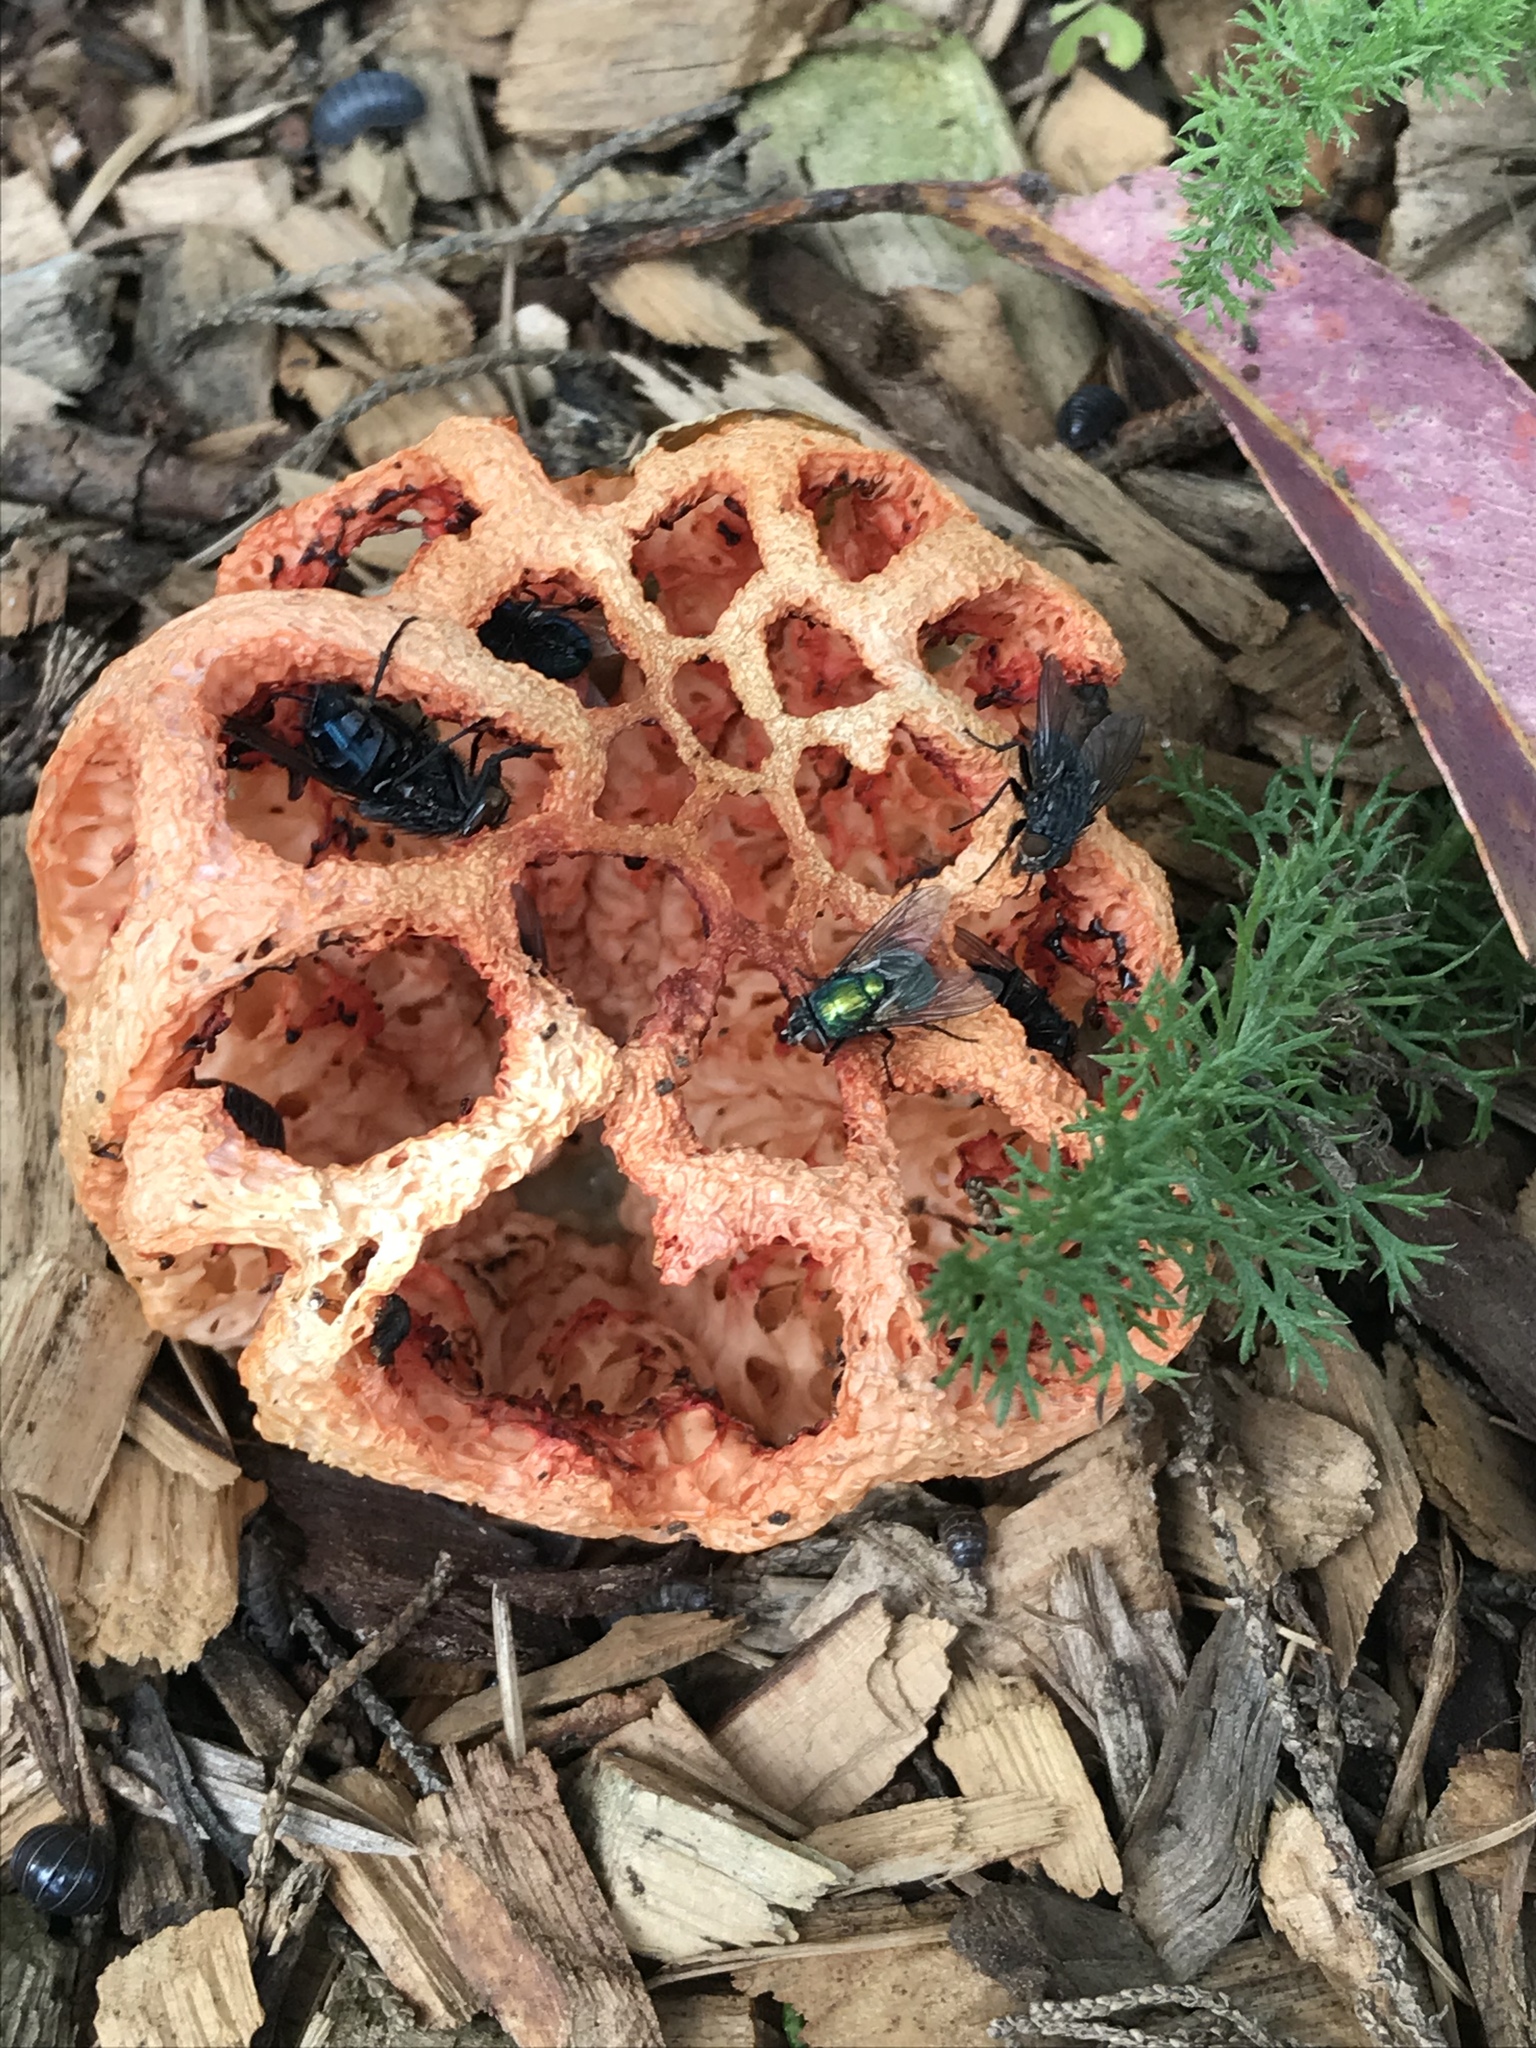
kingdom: Fungi
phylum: Basidiomycota
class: Agaricomycetes
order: Phallales
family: Phallaceae
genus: Clathrus
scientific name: Clathrus ruber
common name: Red cage
